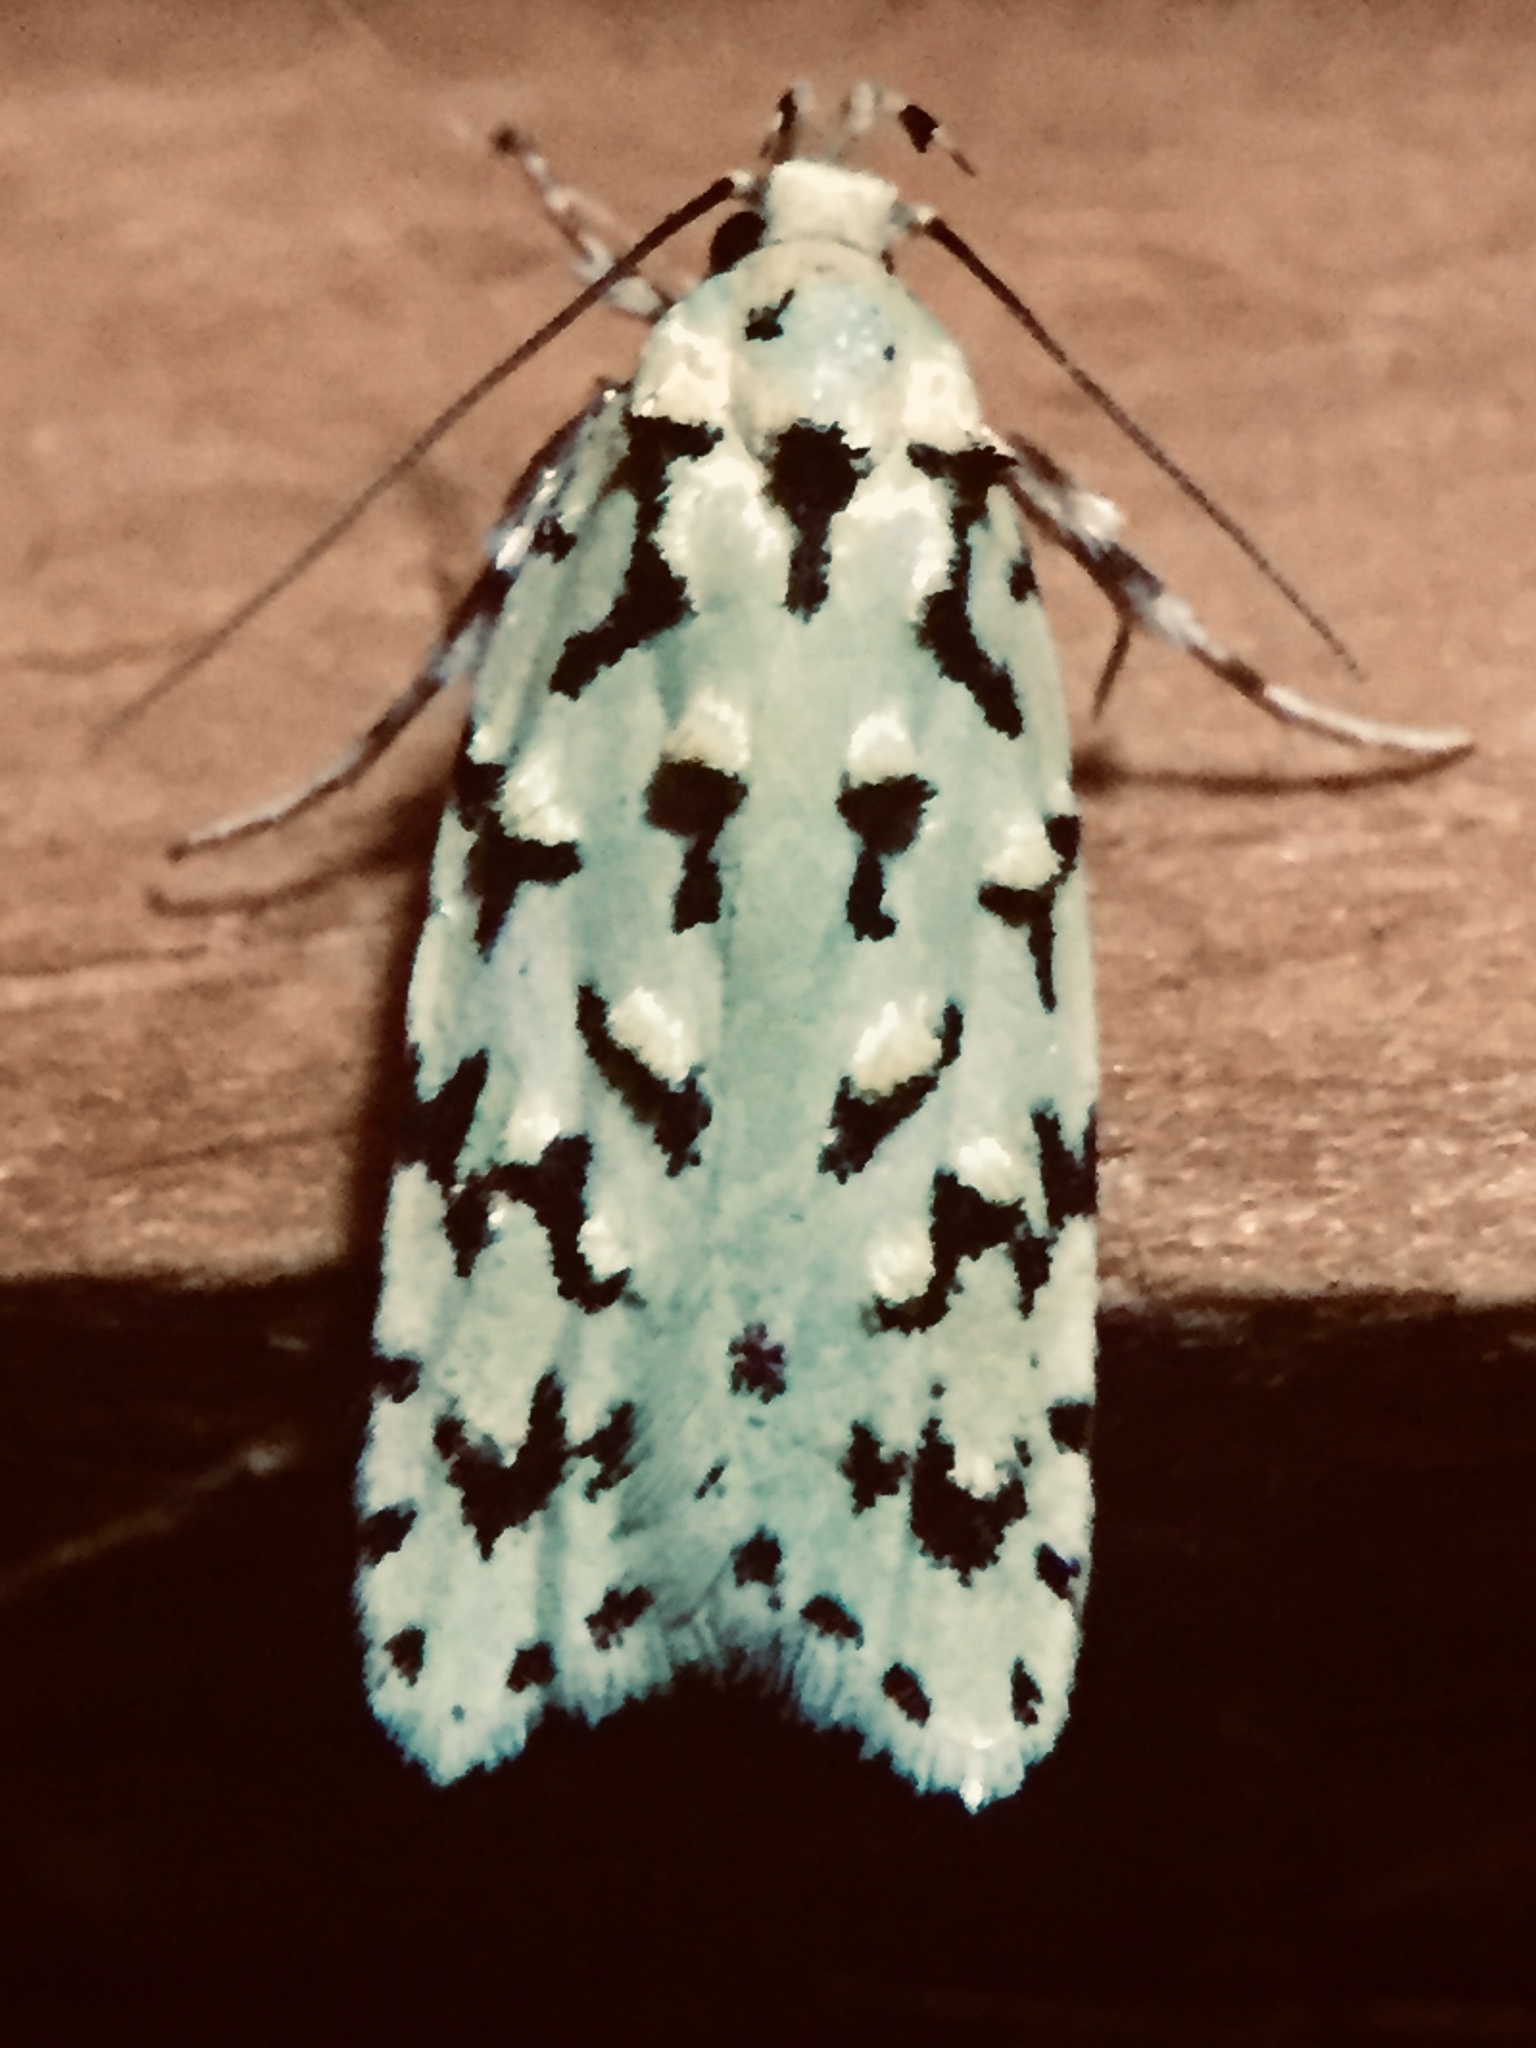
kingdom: Animalia
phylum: Arthropoda
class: Insecta
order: Lepidoptera
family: Oecophoridae
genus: Izatha
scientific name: Izatha peroneanella
